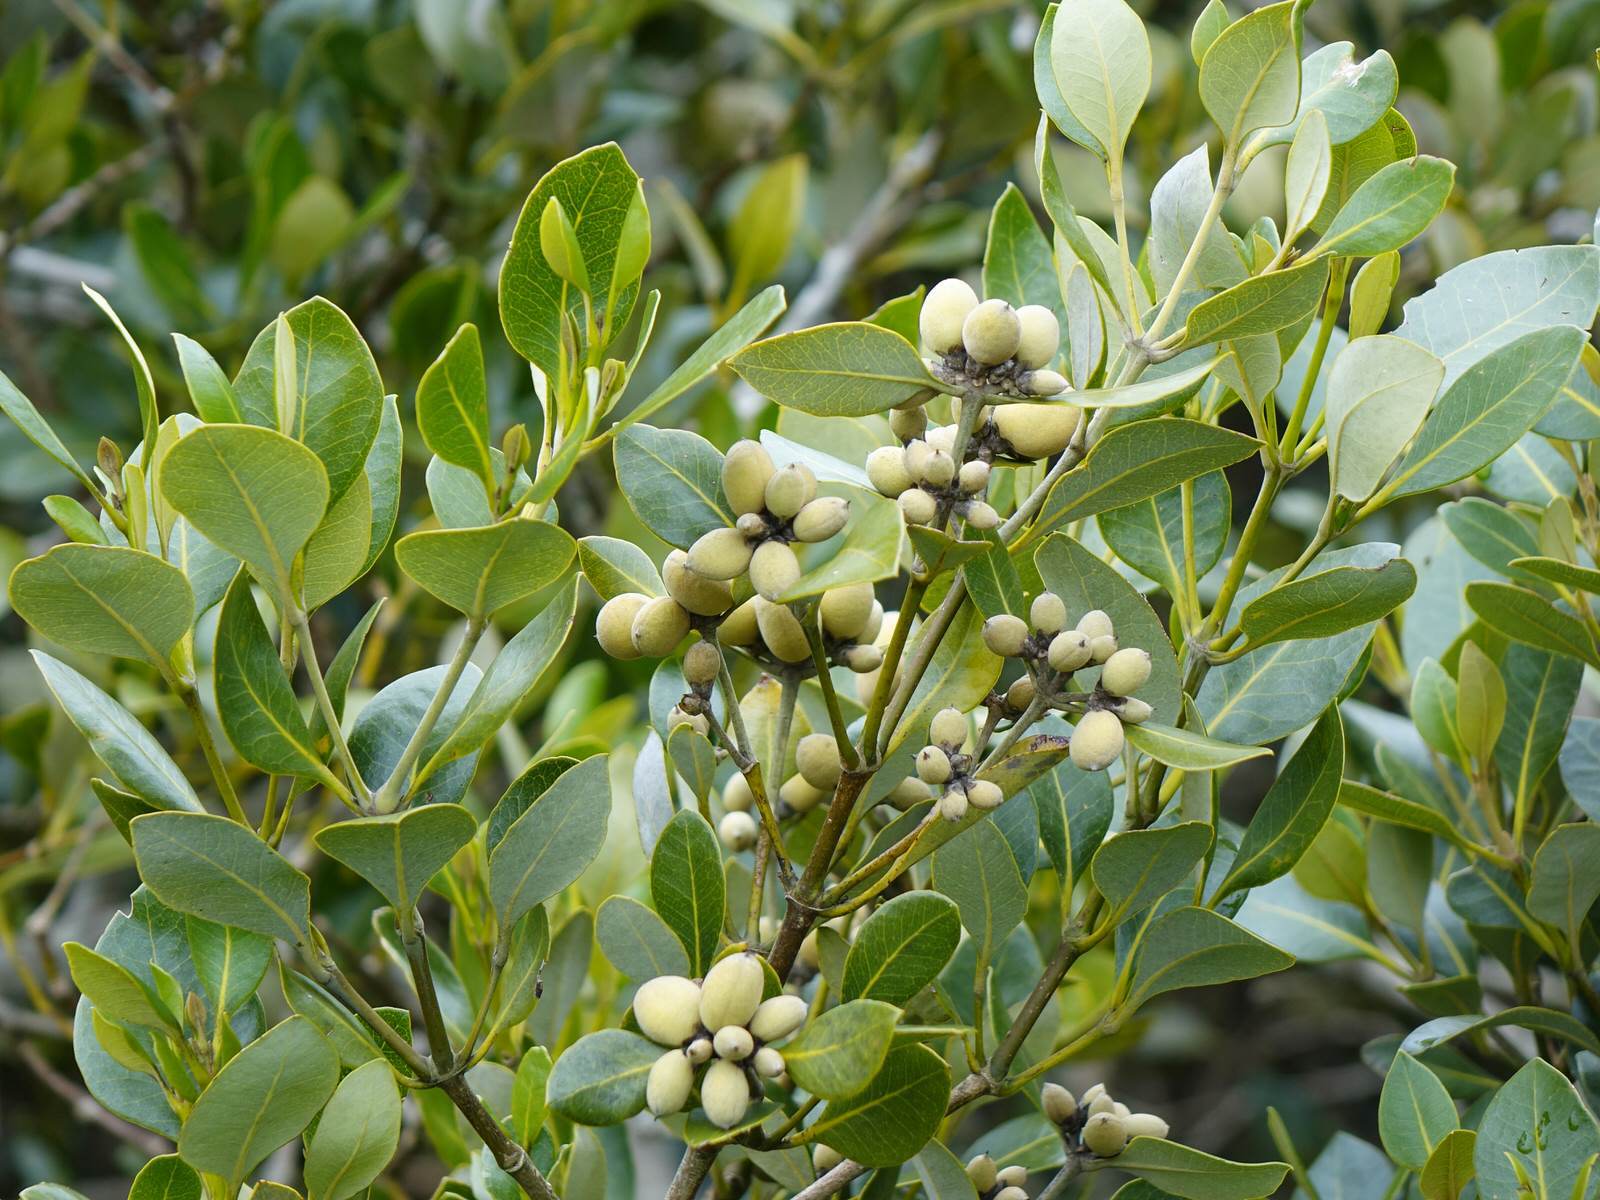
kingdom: Plantae
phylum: Tracheophyta
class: Magnoliopsida
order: Lamiales
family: Acanthaceae
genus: Avicennia
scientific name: Avicennia marina
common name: Gray mangrove
